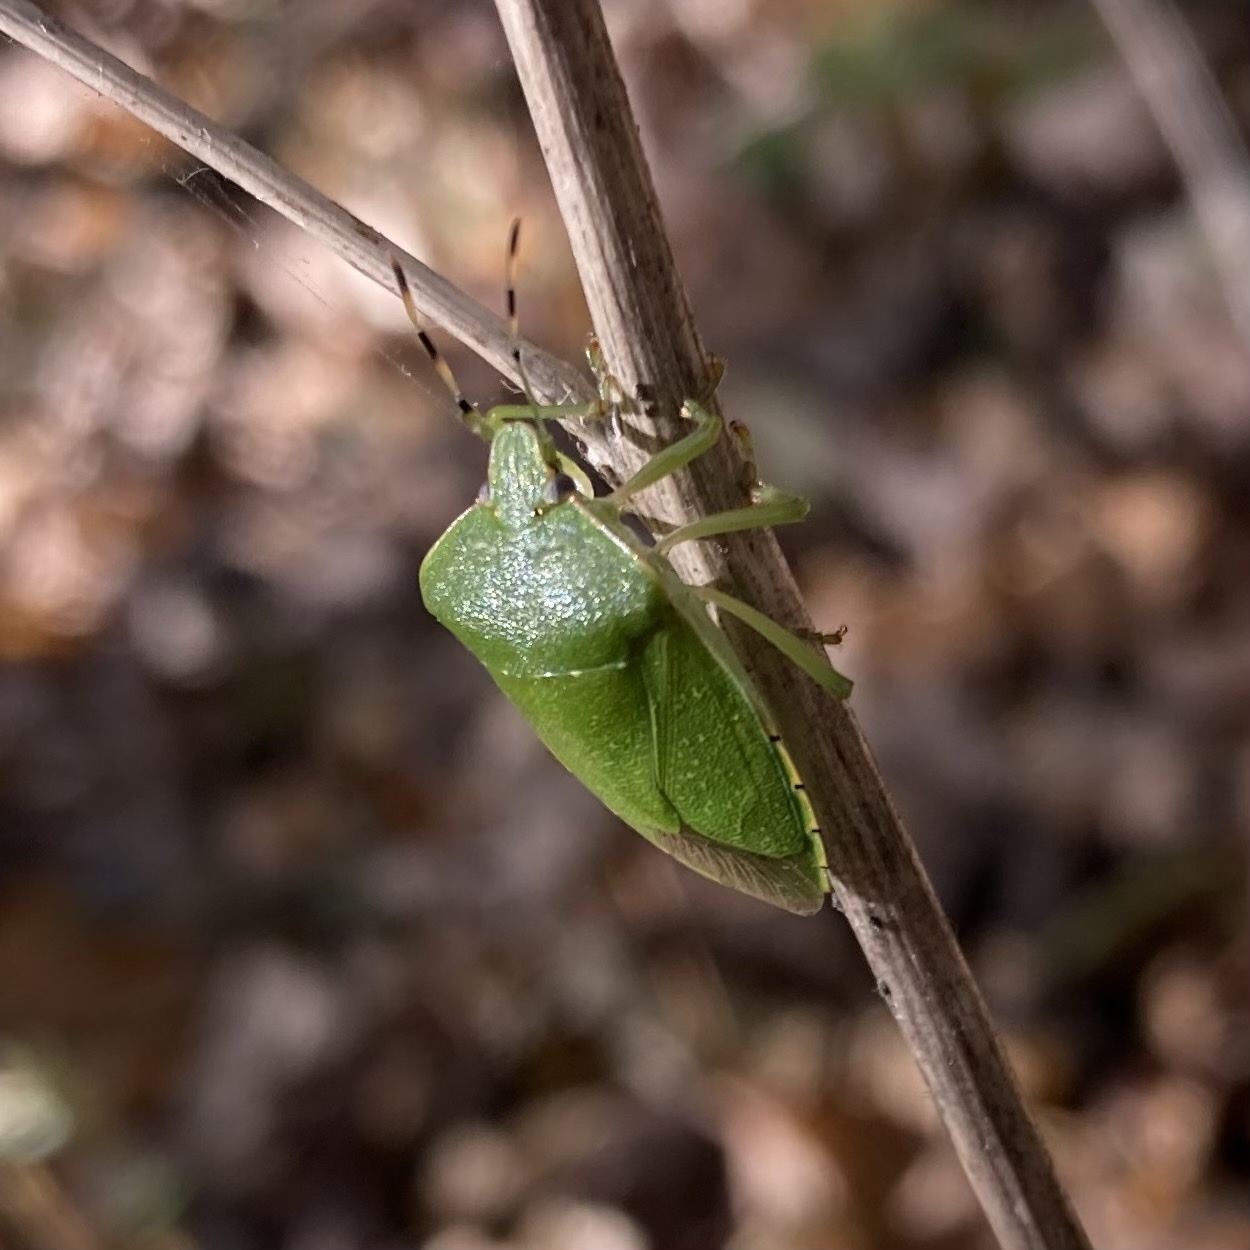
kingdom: Animalia
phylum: Arthropoda
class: Insecta
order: Hemiptera
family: Pentatomidae
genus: Chinavia
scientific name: Chinavia hilaris
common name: Green stink bug
